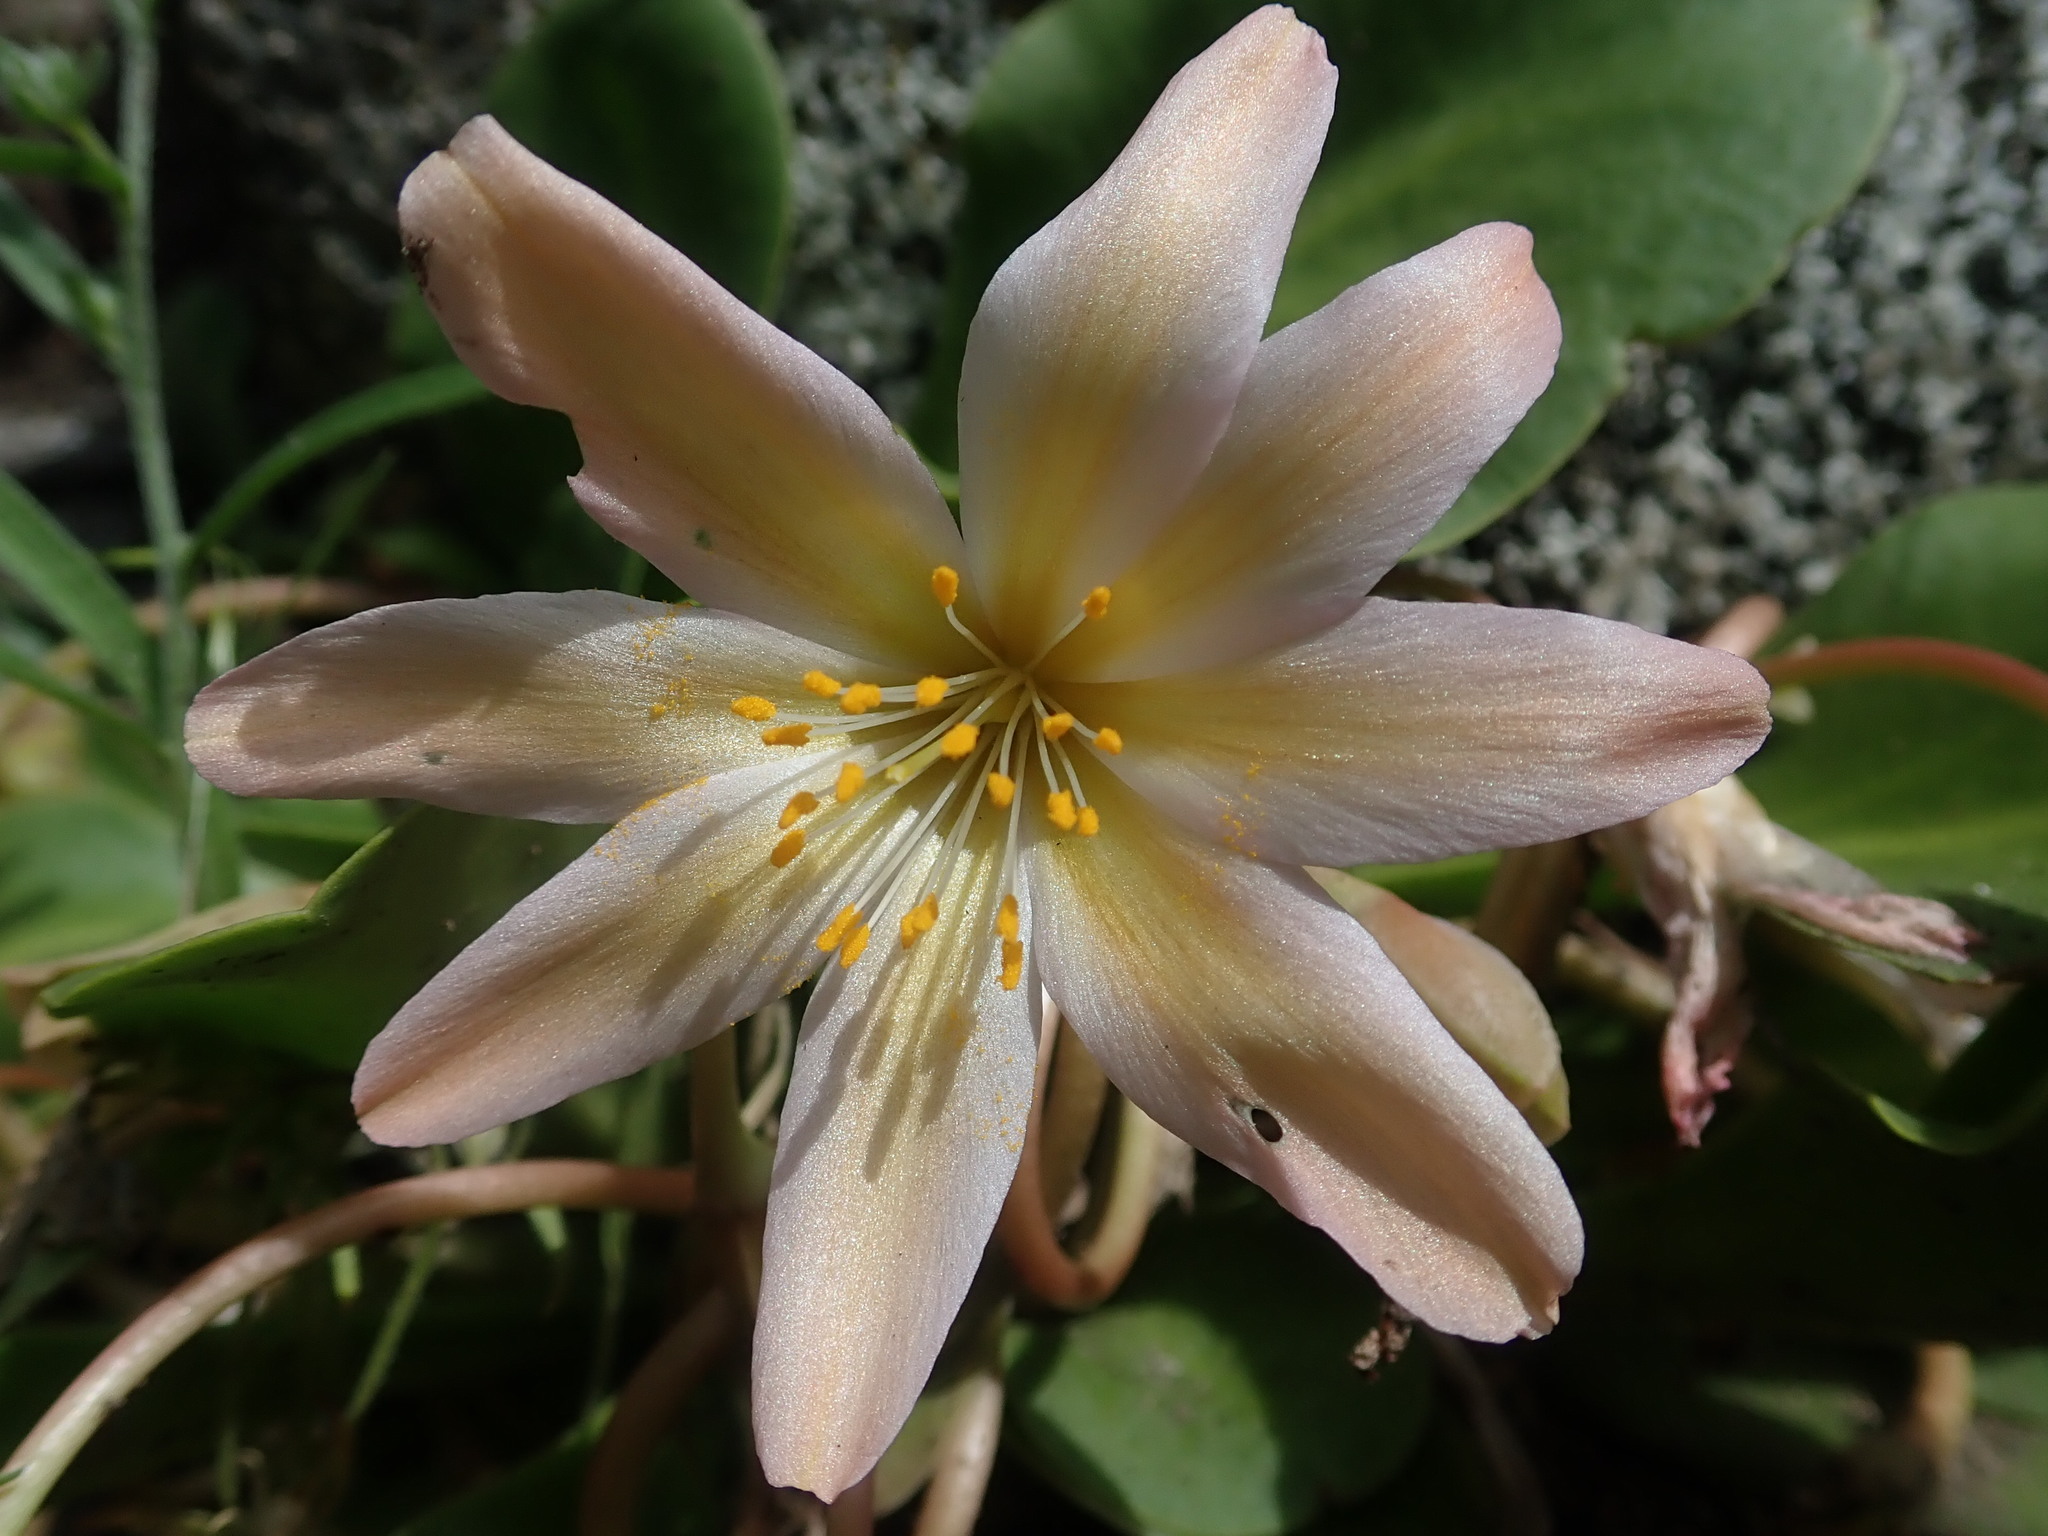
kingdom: Plantae
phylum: Tracheophyta
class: Magnoliopsida
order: Caryophyllales
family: Montiaceae
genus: Lewisiopsis
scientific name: Lewisiopsis tweedyi
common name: Tweedy's pussypaws
